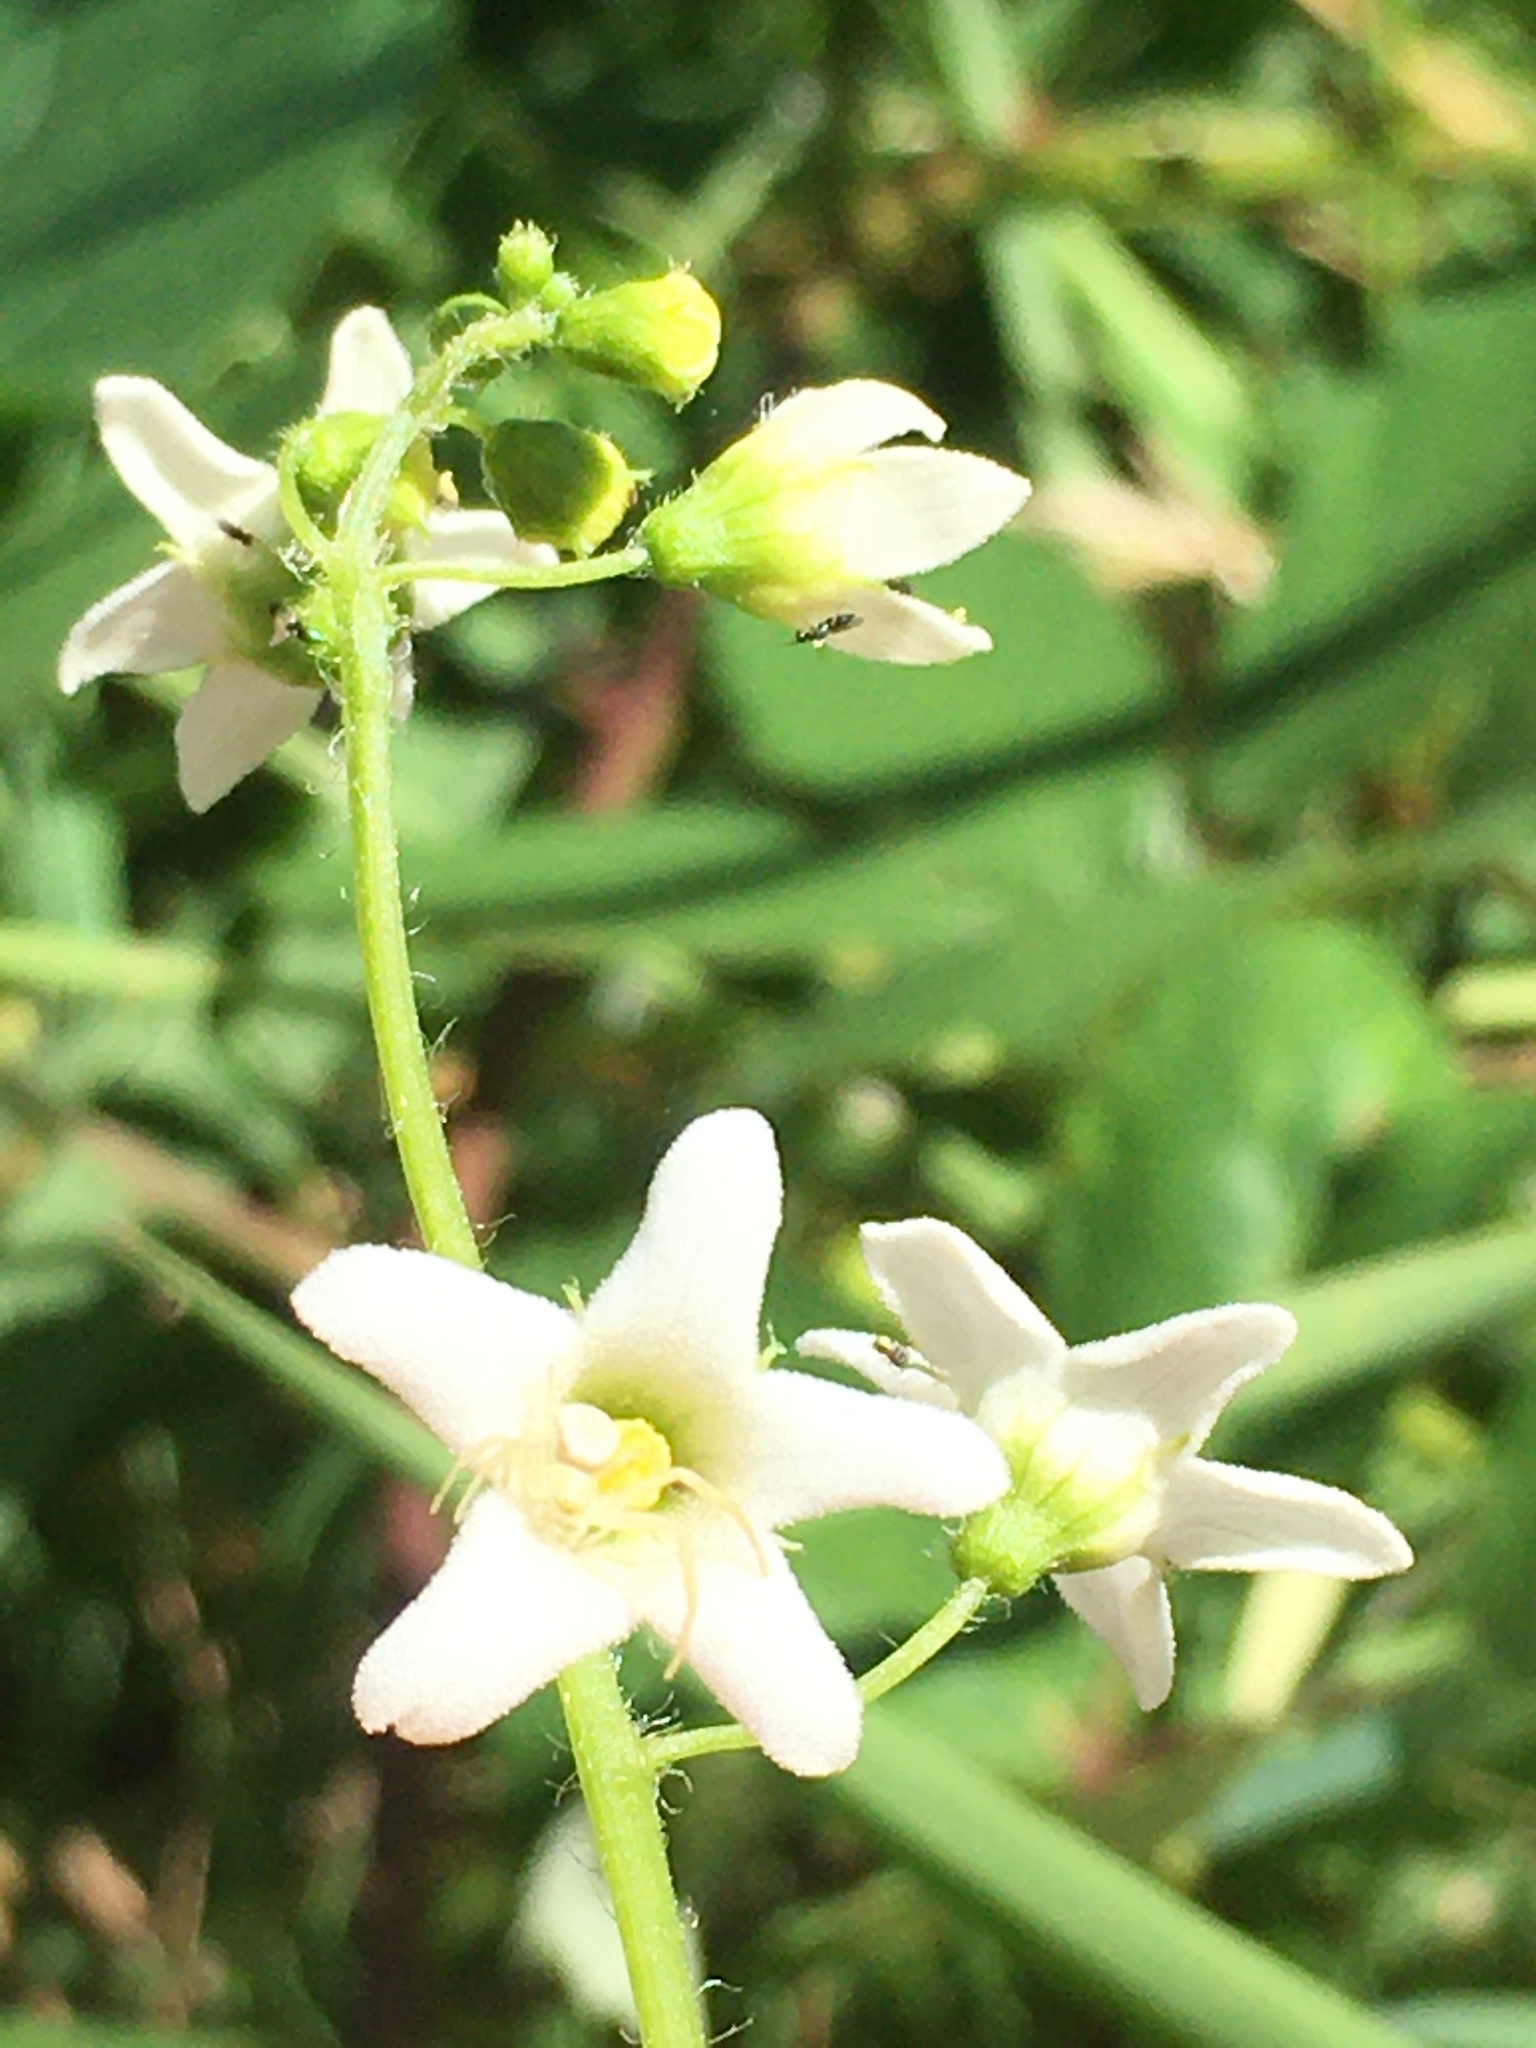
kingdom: Animalia
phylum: Arthropoda
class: Arachnida
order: Araneae
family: Thomisidae
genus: Misumena
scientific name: Misumena vatia
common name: Goldenrod crab spider
